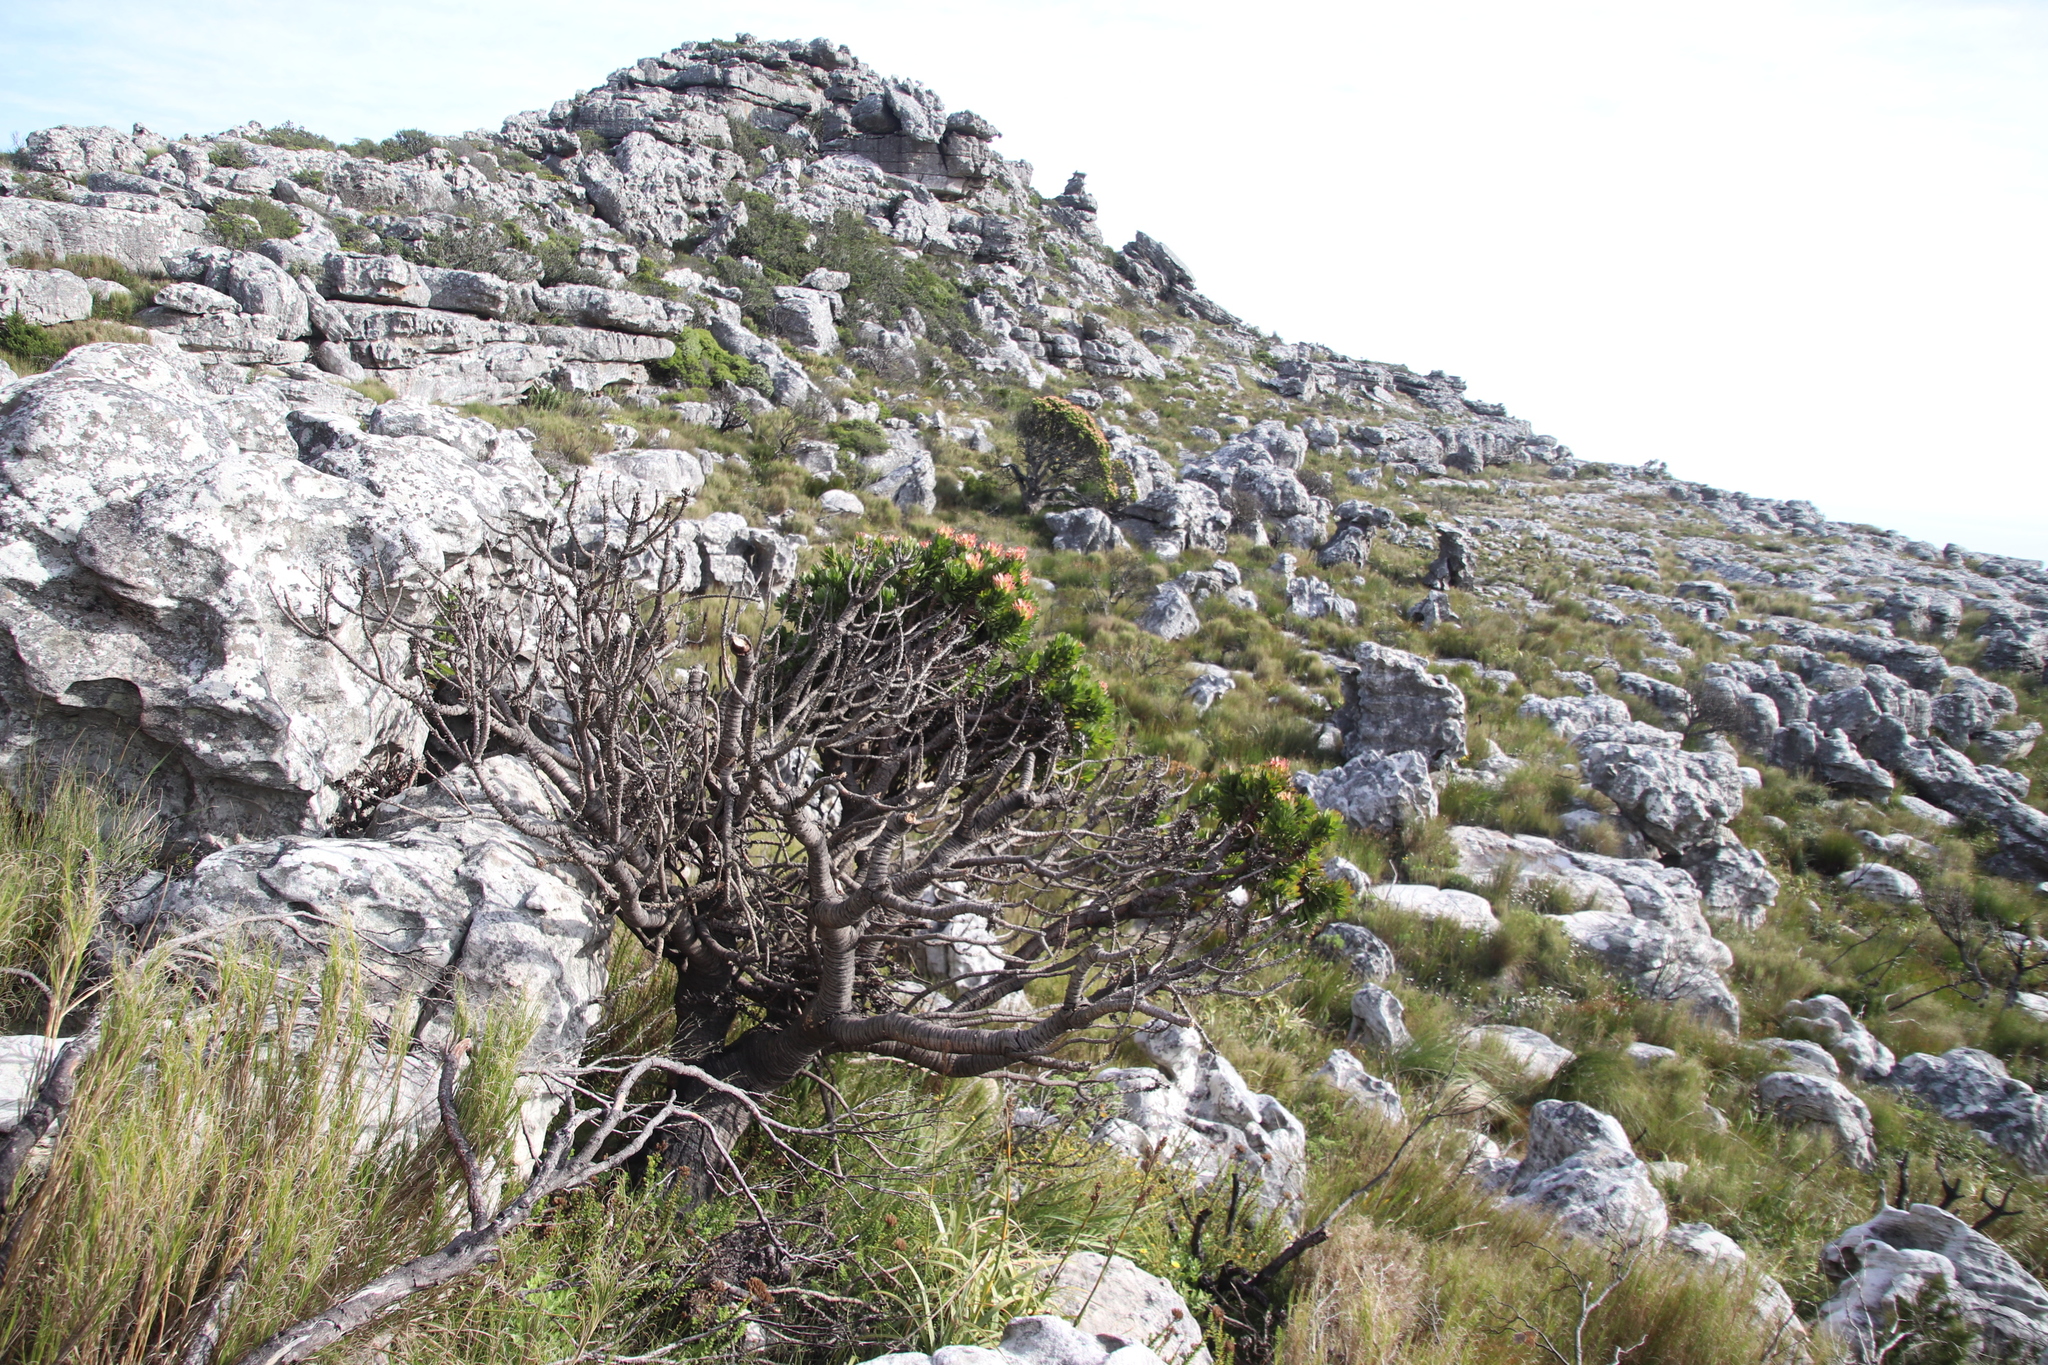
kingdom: Plantae
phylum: Tracheophyta
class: Magnoliopsida
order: Proteales
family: Proteaceae
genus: Mimetes
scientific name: Mimetes fimbriifolius
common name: Fringed bottlebrush
